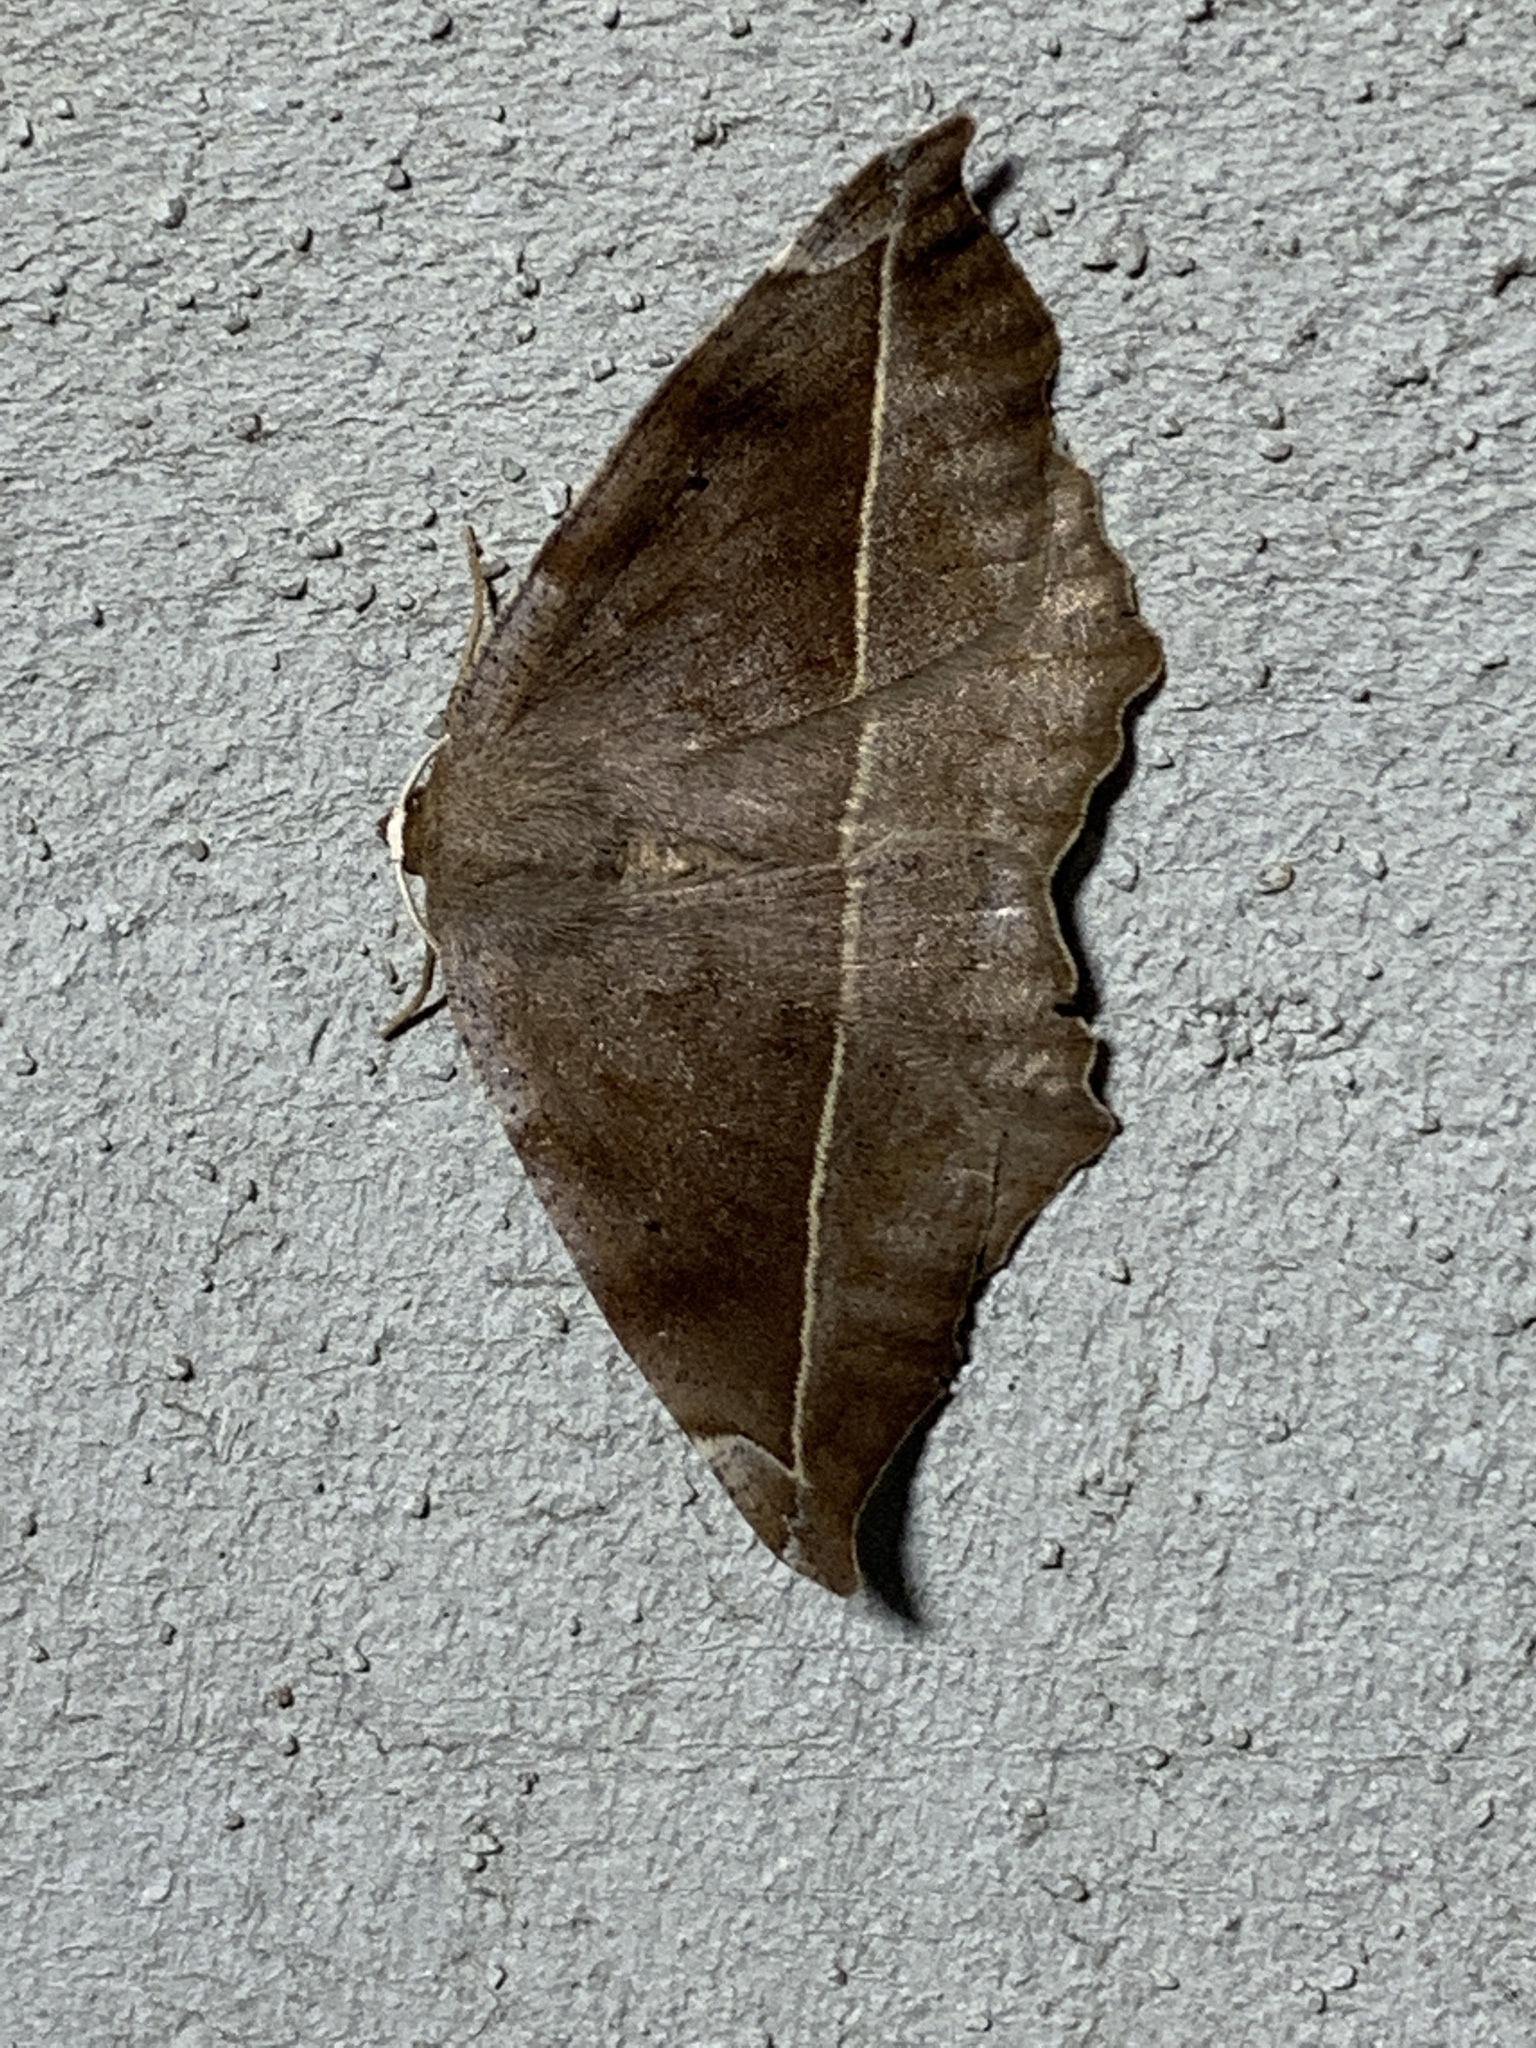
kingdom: Animalia
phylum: Arthropoda
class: Insecta
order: Lepidoptera
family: Geometridae
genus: Eutrapela
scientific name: Eutrapela clemataria
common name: Curved-toothed geometer
